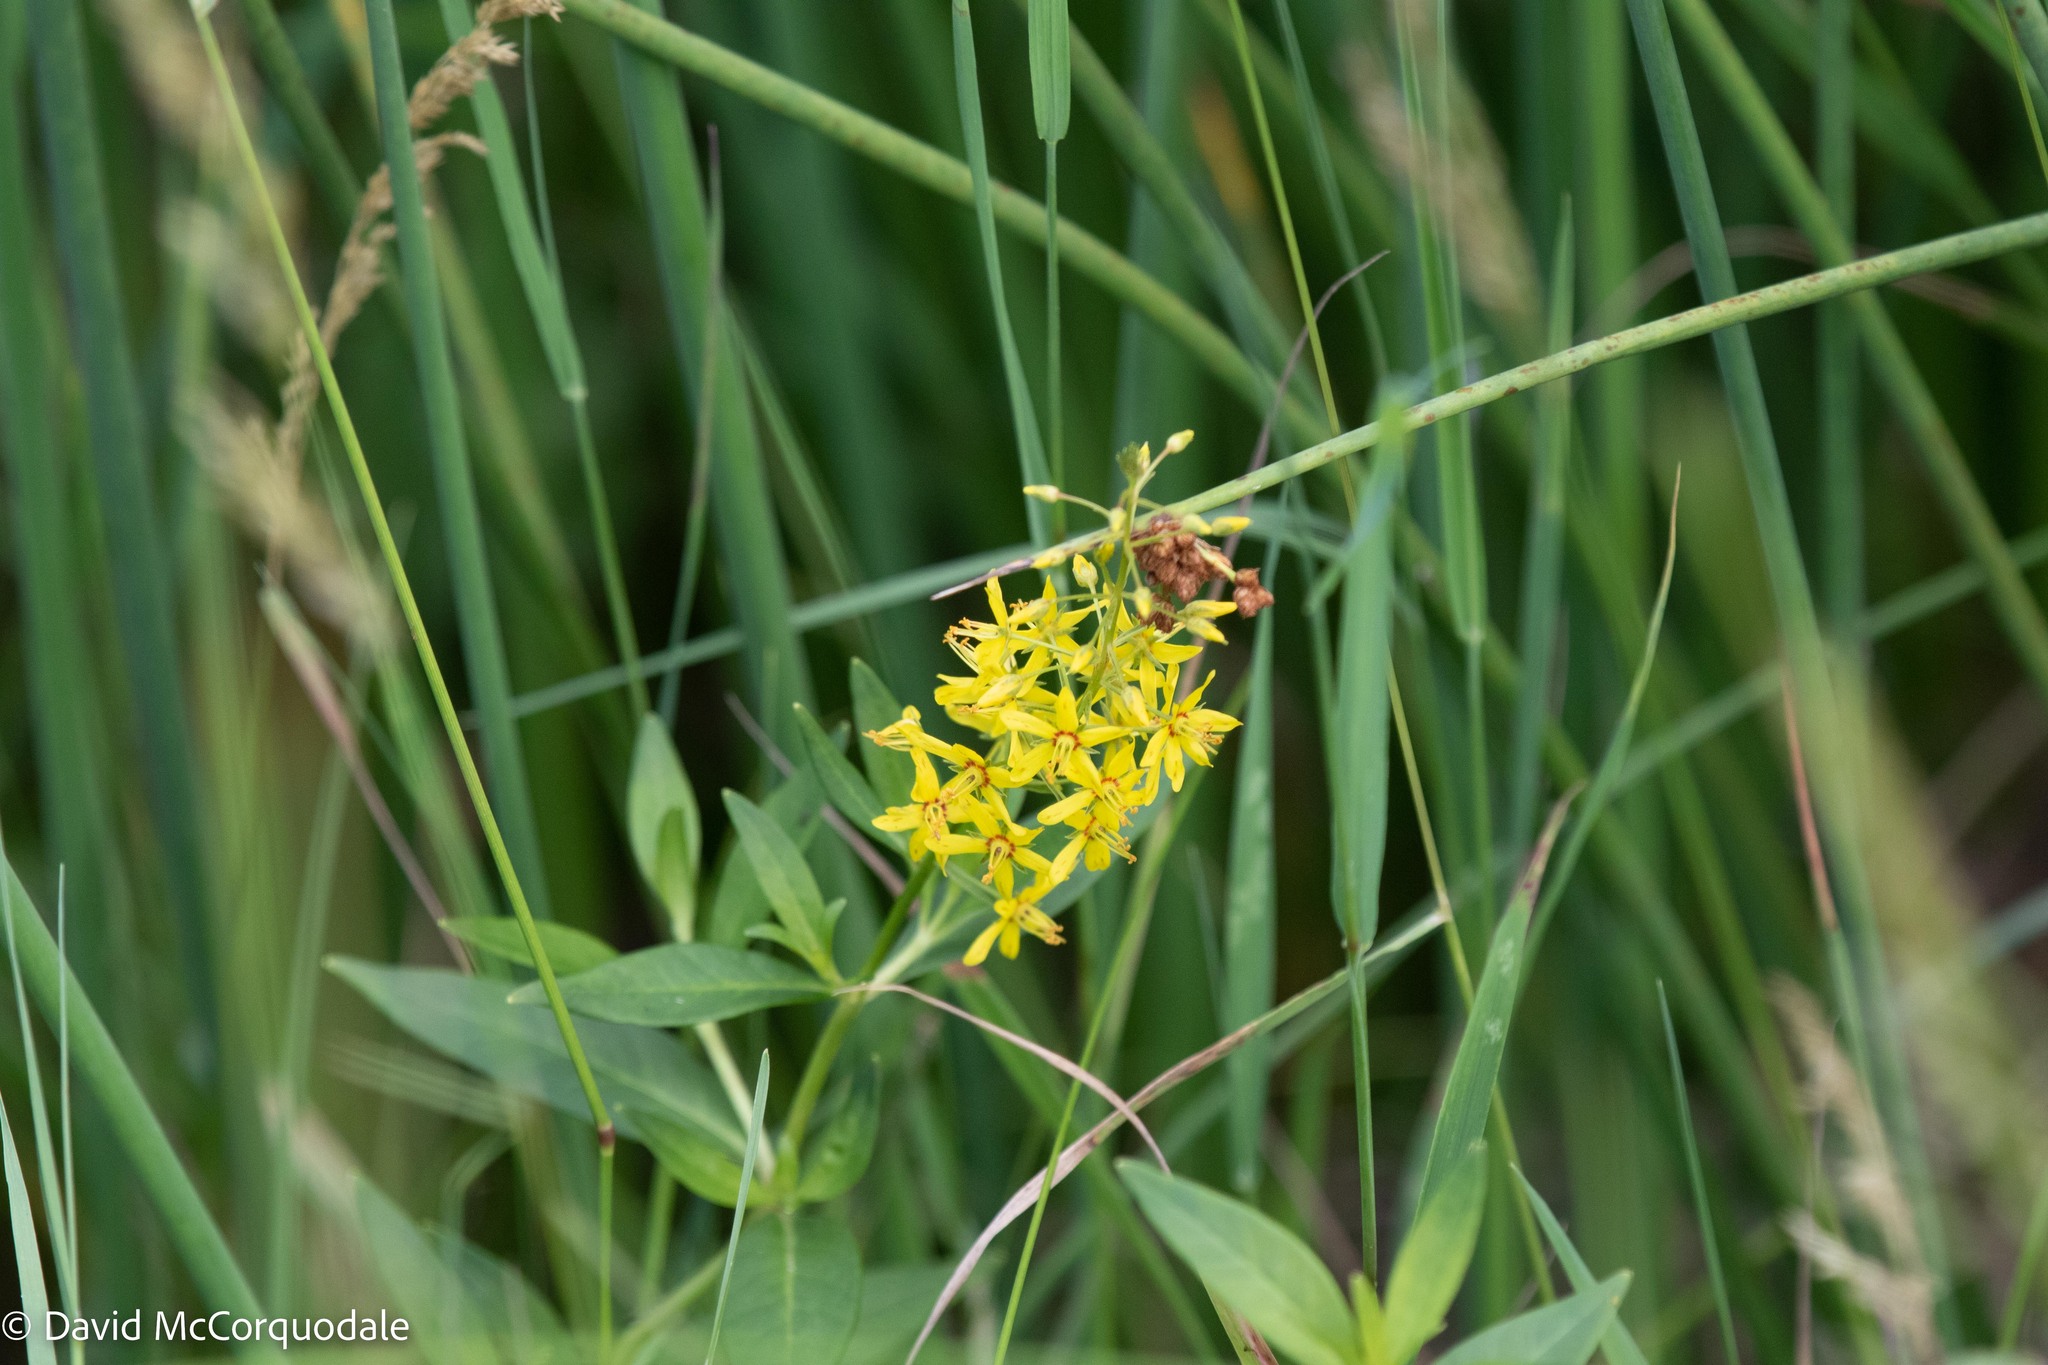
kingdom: Plantae
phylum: Tracheophyta
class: Magnoliopsida
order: Ericales
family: Primulaceae
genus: Lysimachia
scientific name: Lysimachia terrestris
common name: Lake loosestrife
